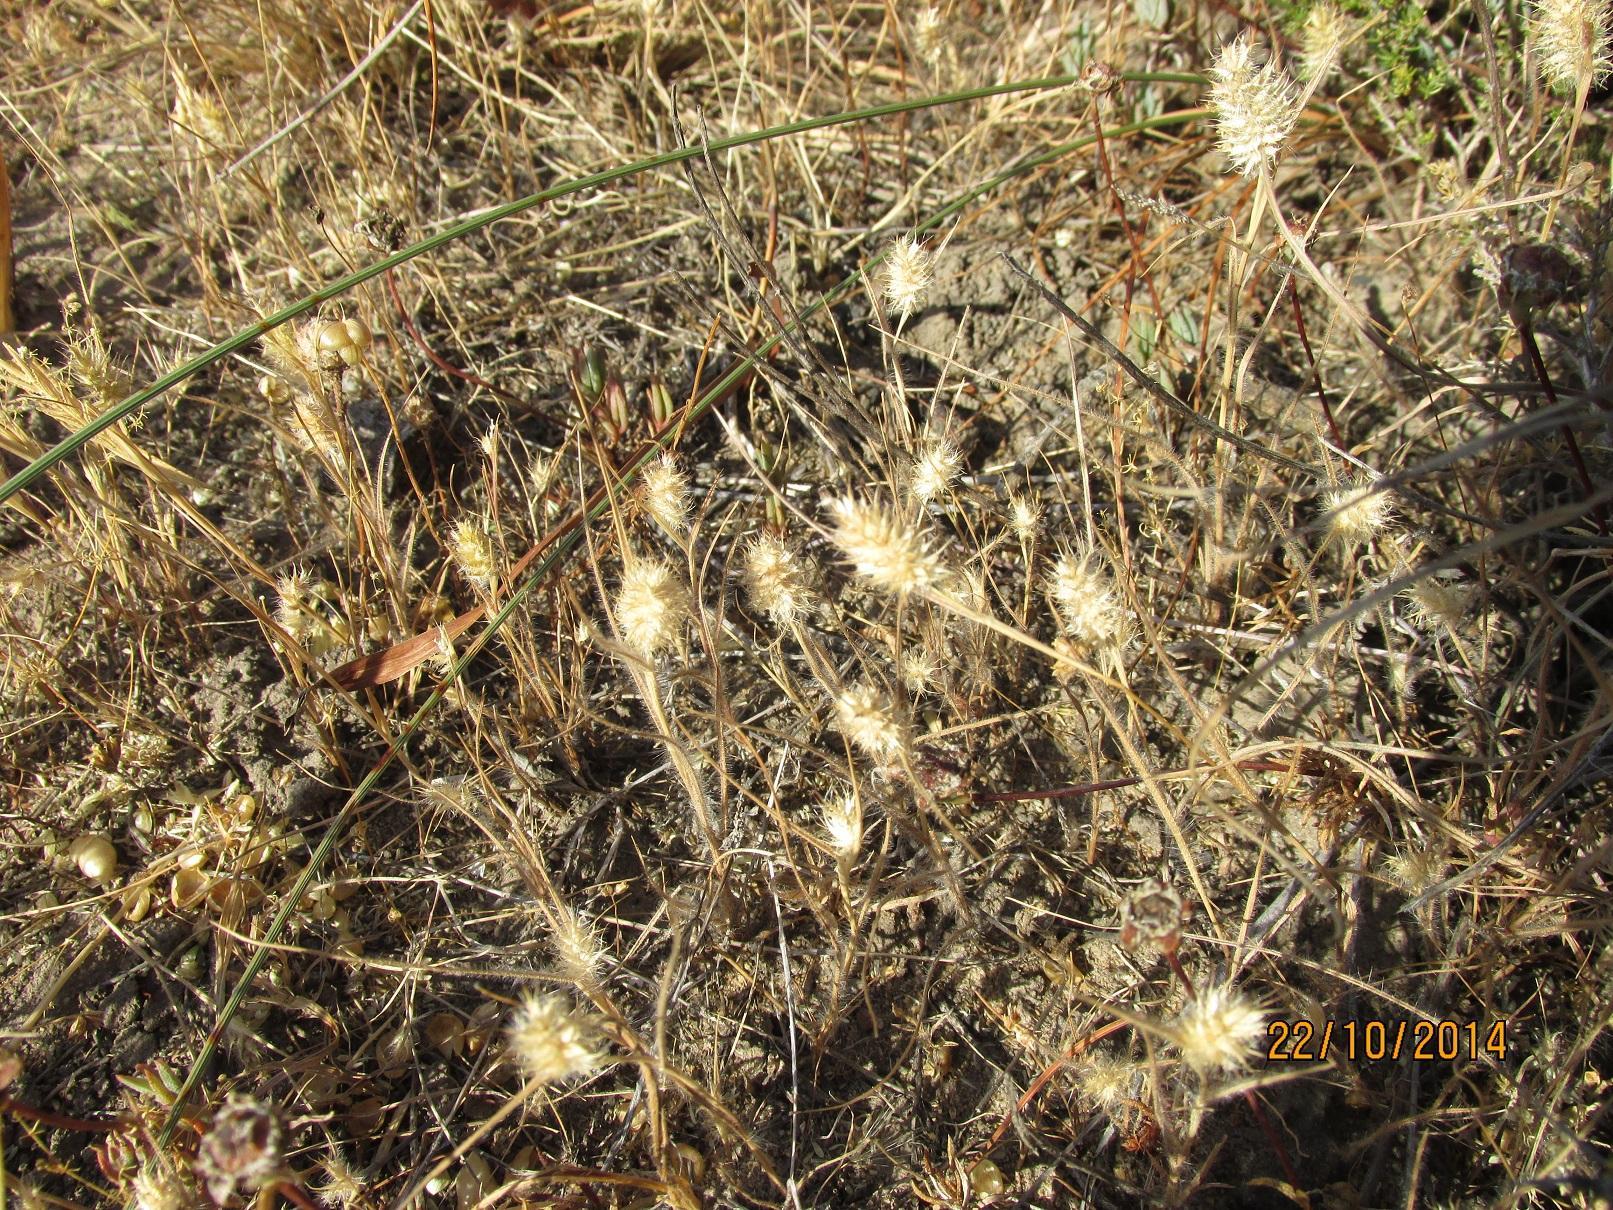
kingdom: Plantae
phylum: Tracheophyta
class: Liliopsida
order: Poales
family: Poaceae
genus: Tribolium
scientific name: Tribolium echinatum
